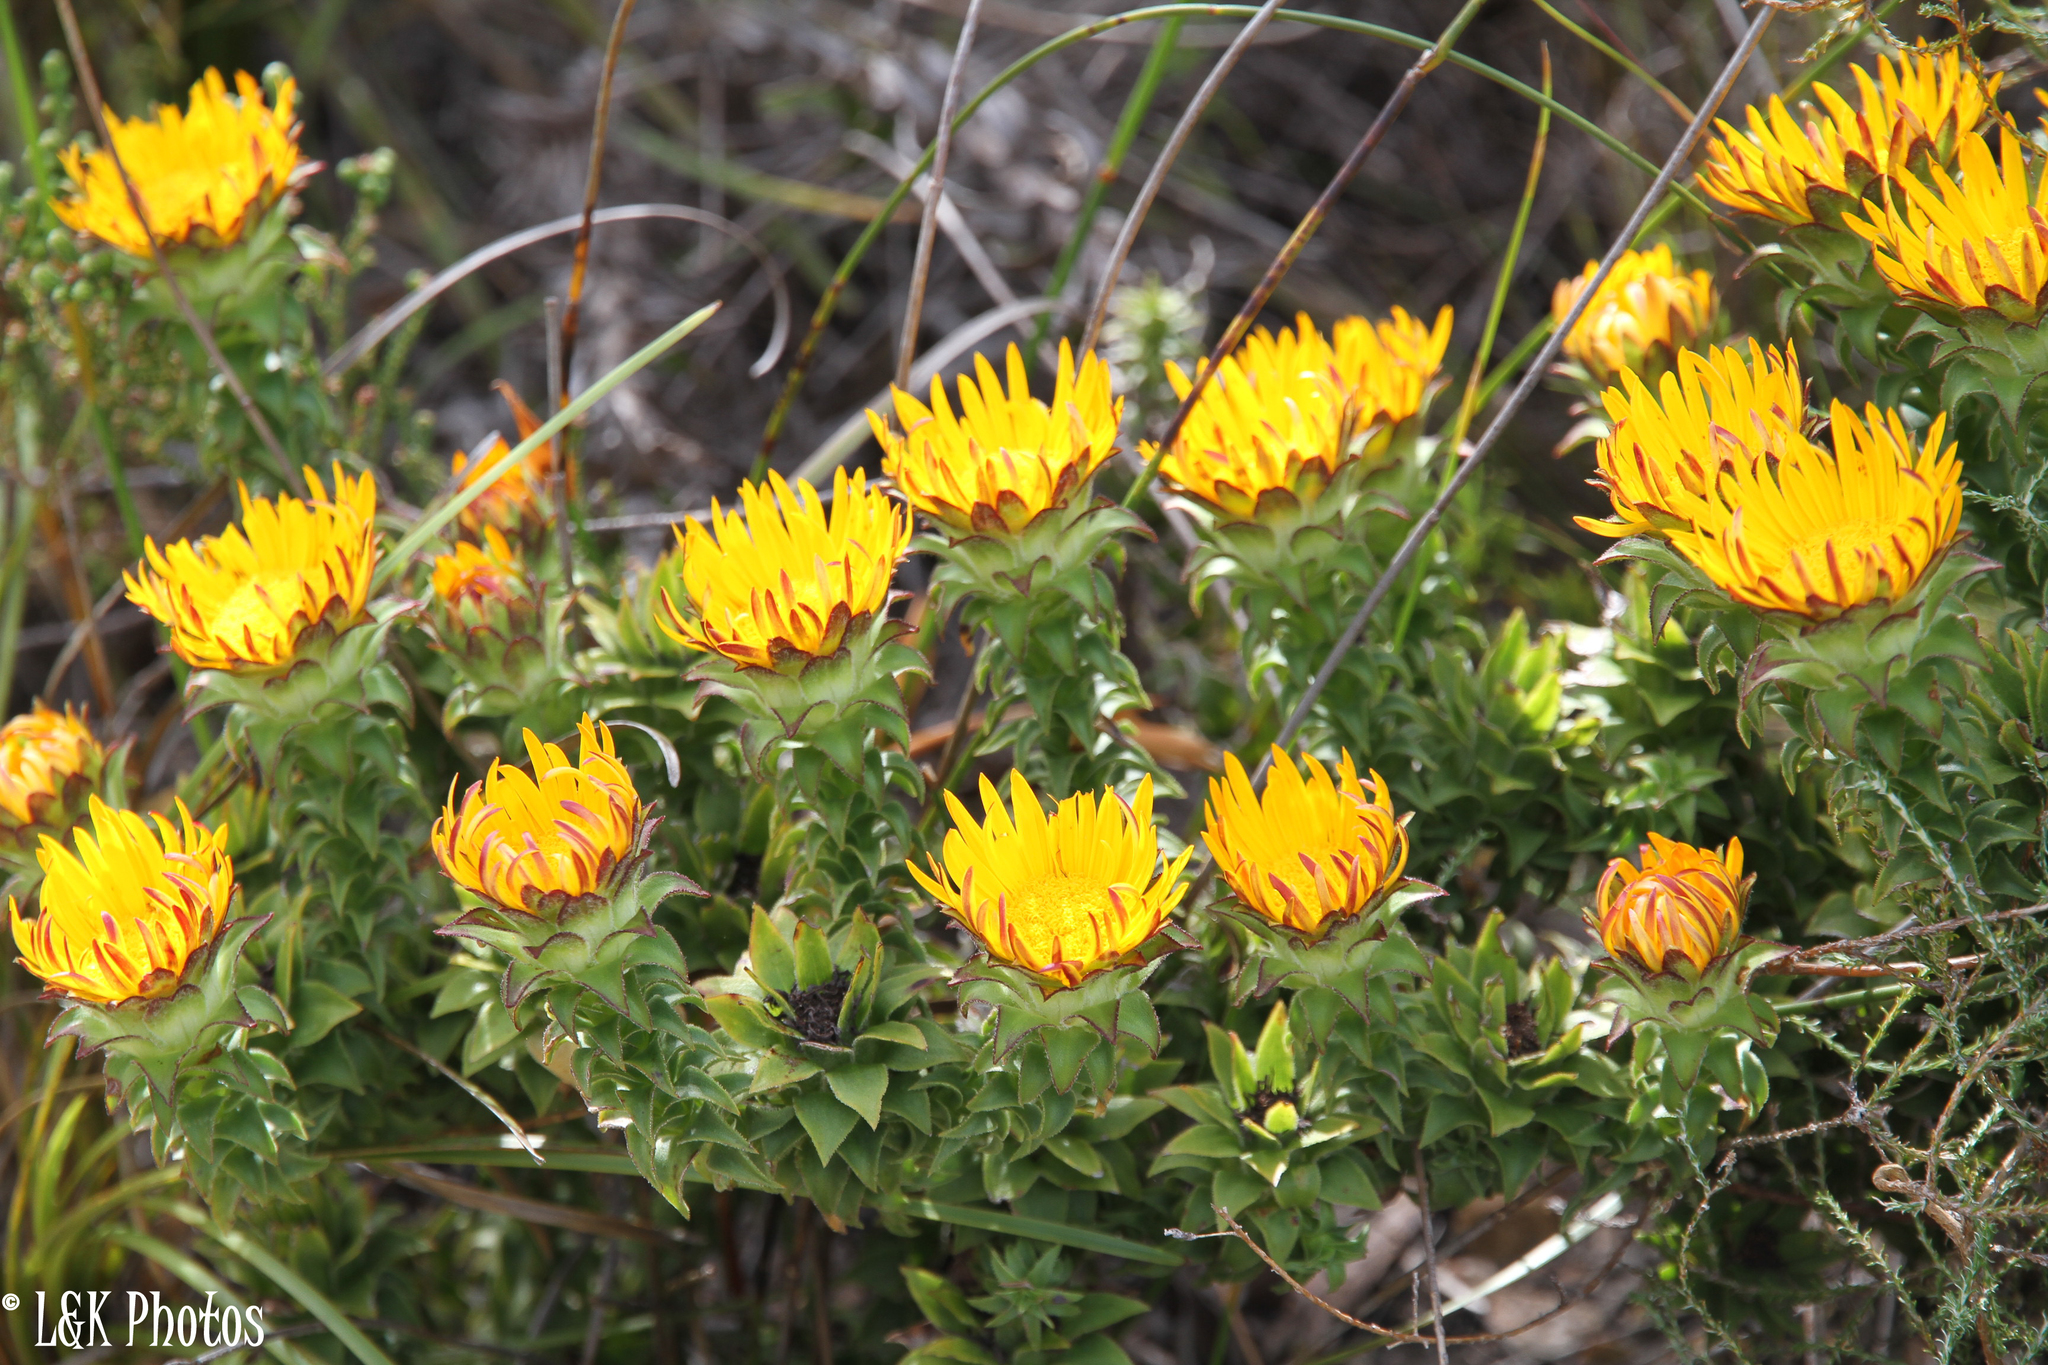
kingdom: Plantae
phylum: Tracheophyta
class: Magnoliopsida
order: Asterales
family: Asteraceae
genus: Oedera
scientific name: Oedera imbricata
